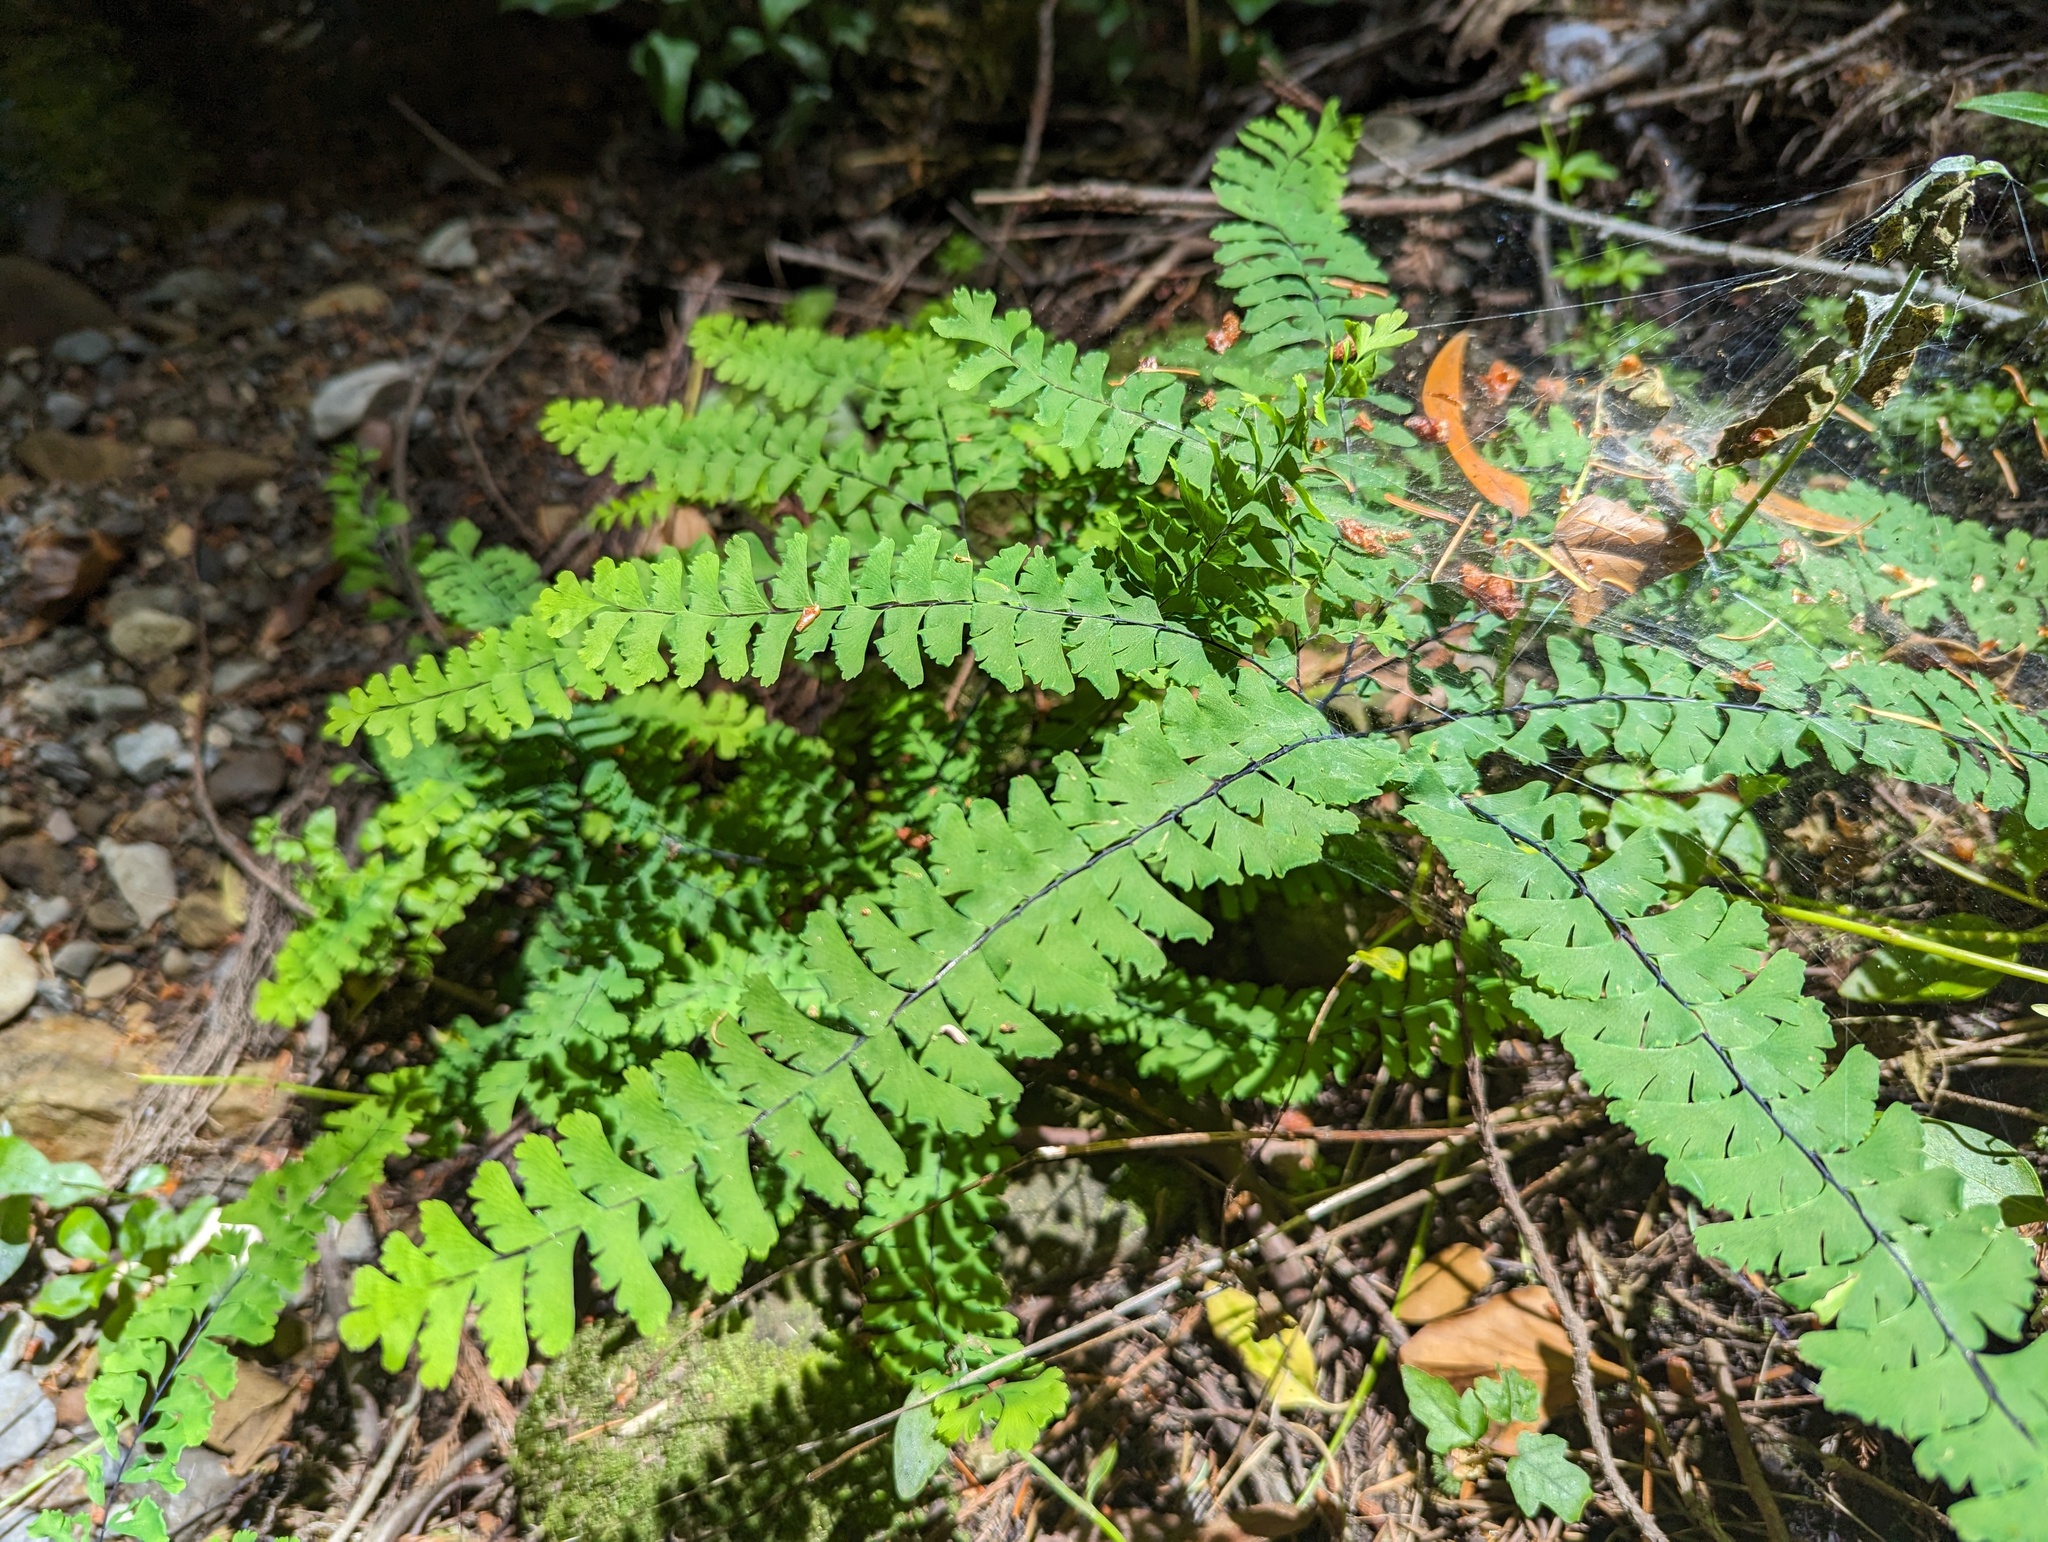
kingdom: Plantae
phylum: Tracheophyta
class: Polypodiopsida
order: Polypodiales
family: Pteridaceae
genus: Adiantum
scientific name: Adiantum aleuticum
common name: Aleutian maidenhair fern
